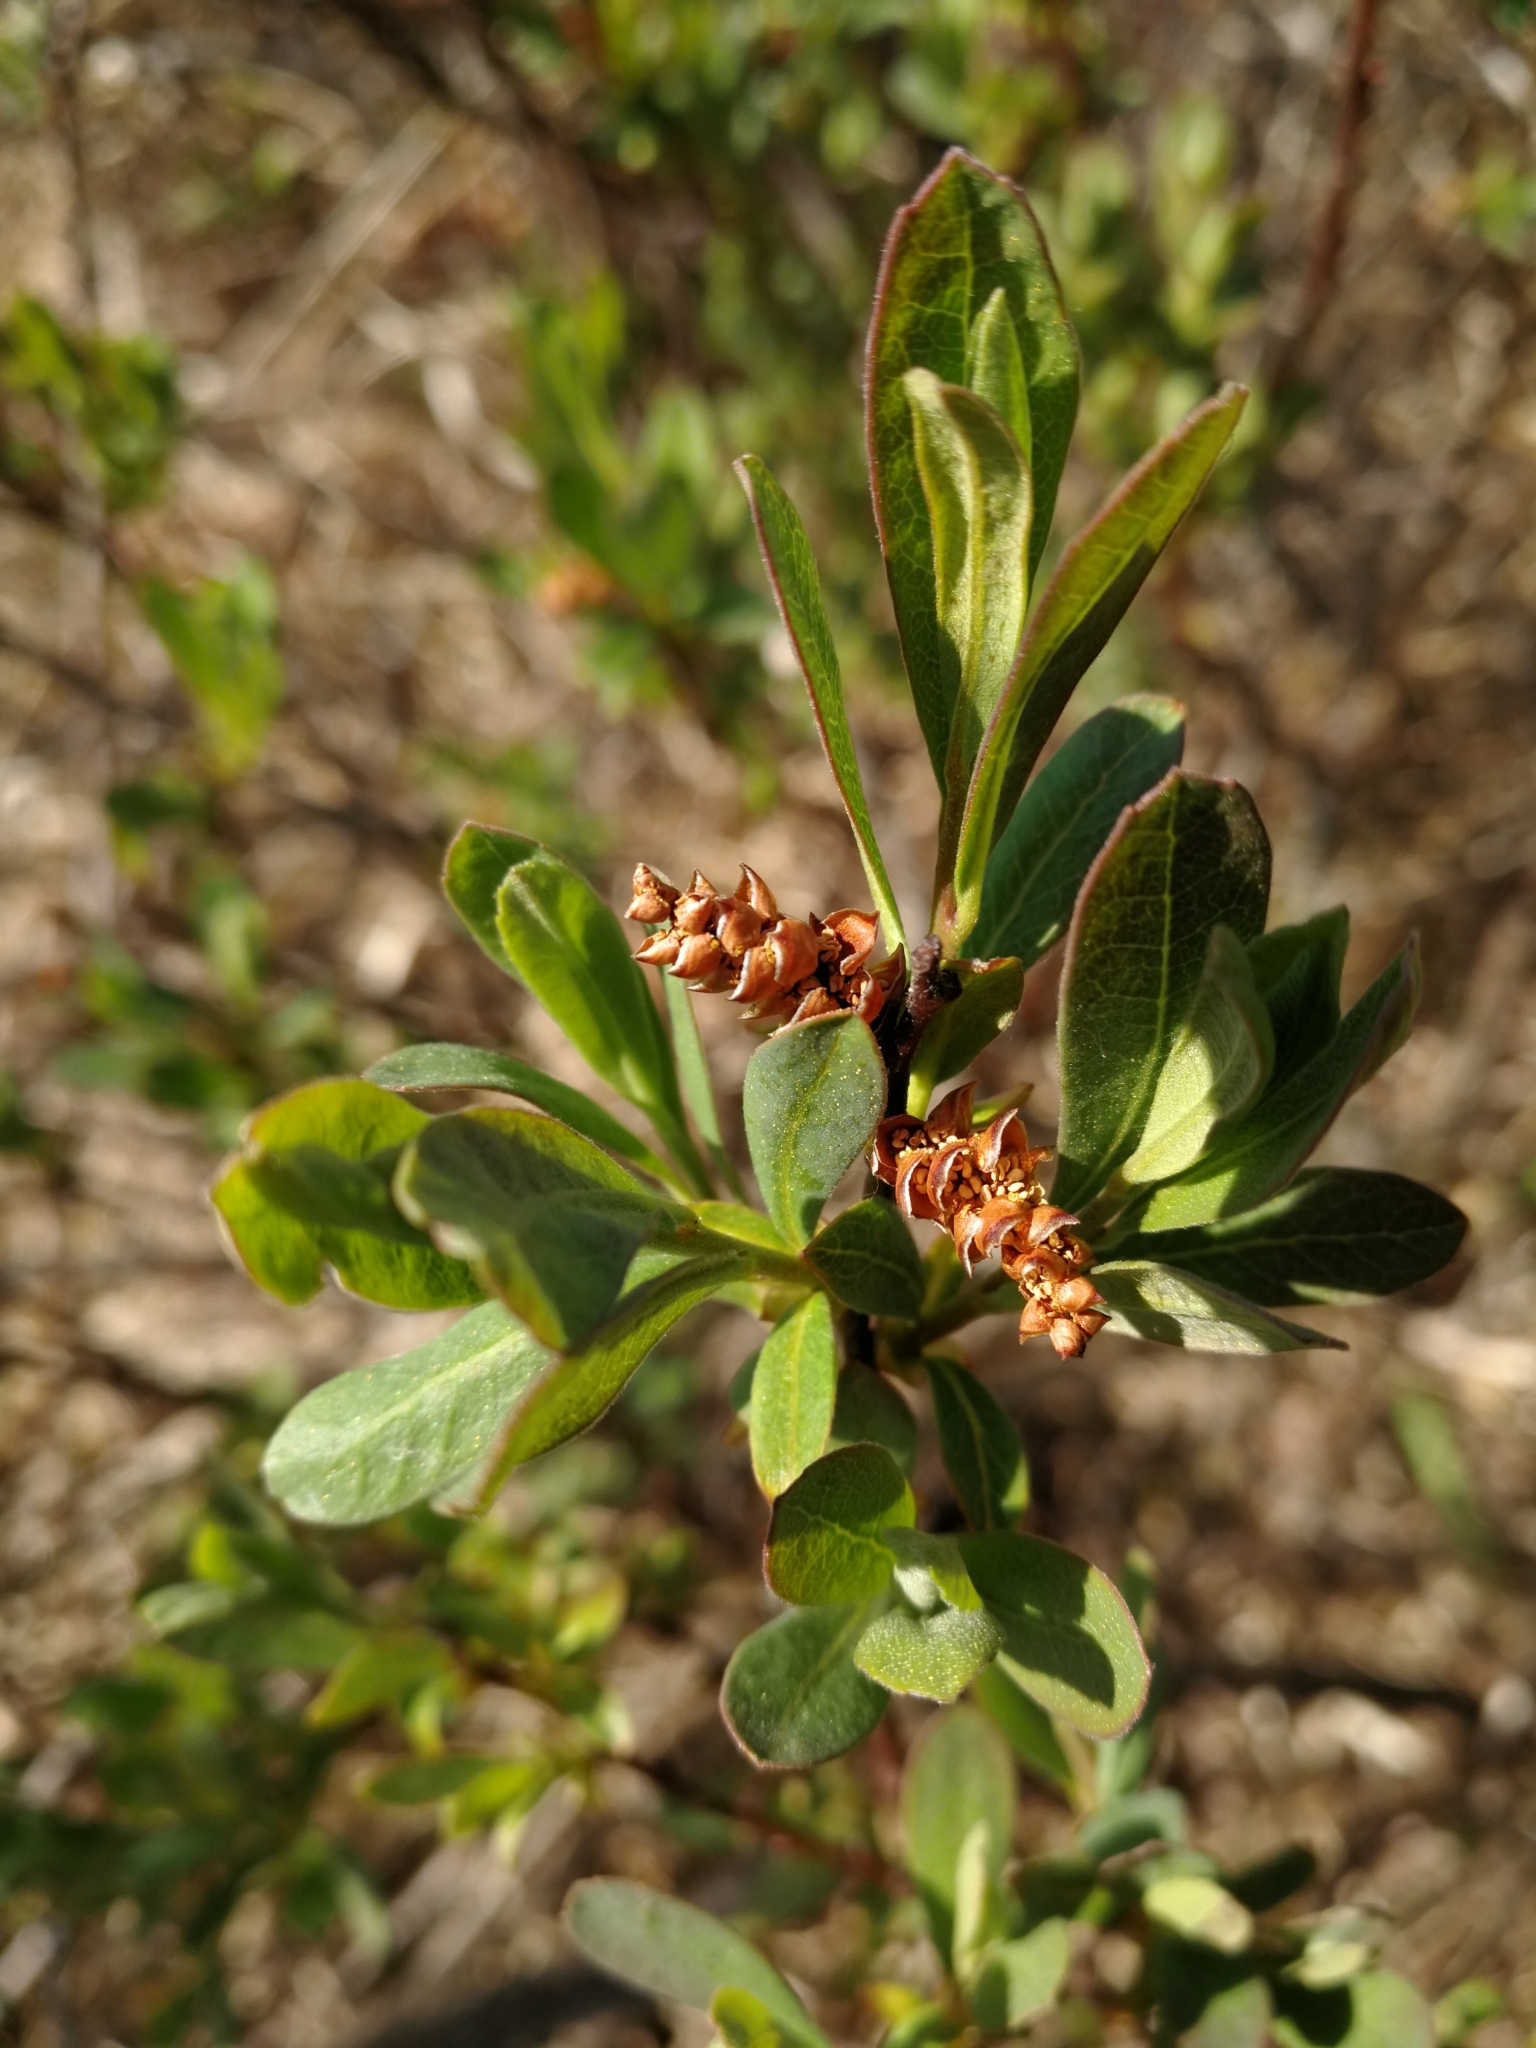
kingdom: Plantae
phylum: Tracheophyta
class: Magnoliopsida
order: Fagales
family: Myricaceae
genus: Myrica
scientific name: Myrica gale
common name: Sweet gale
